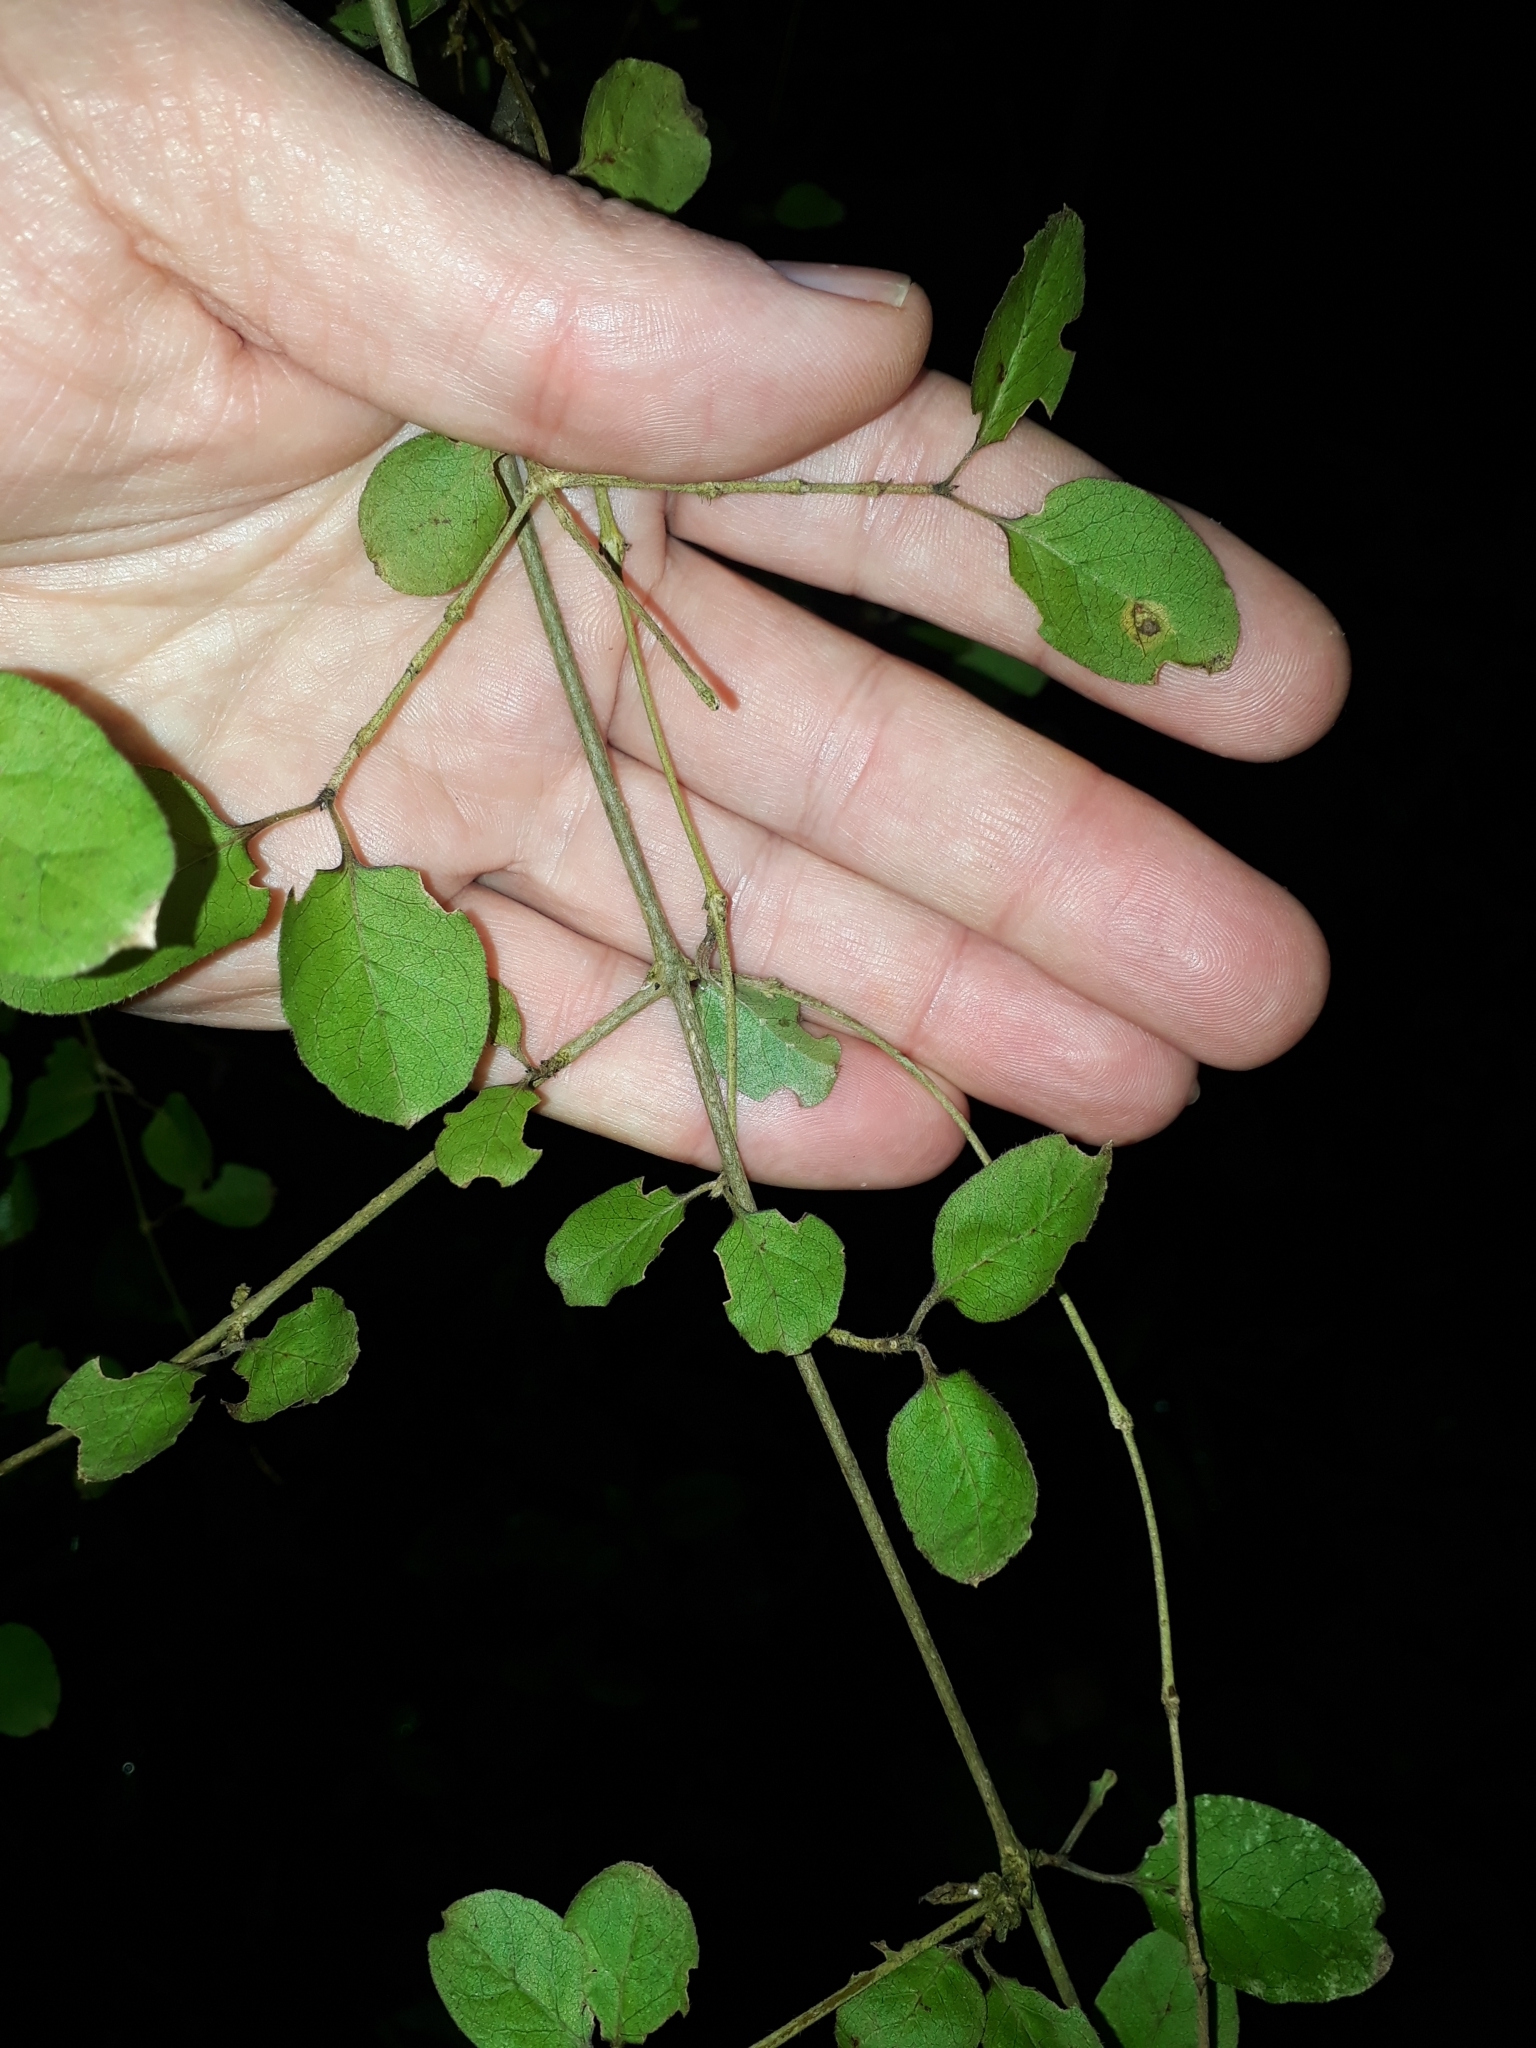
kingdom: Plantae
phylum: Tracheophyta
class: Magnoliopsida
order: Gentianales
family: Rubiaceae
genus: Coprosma
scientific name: Coprosma rotundifolia
